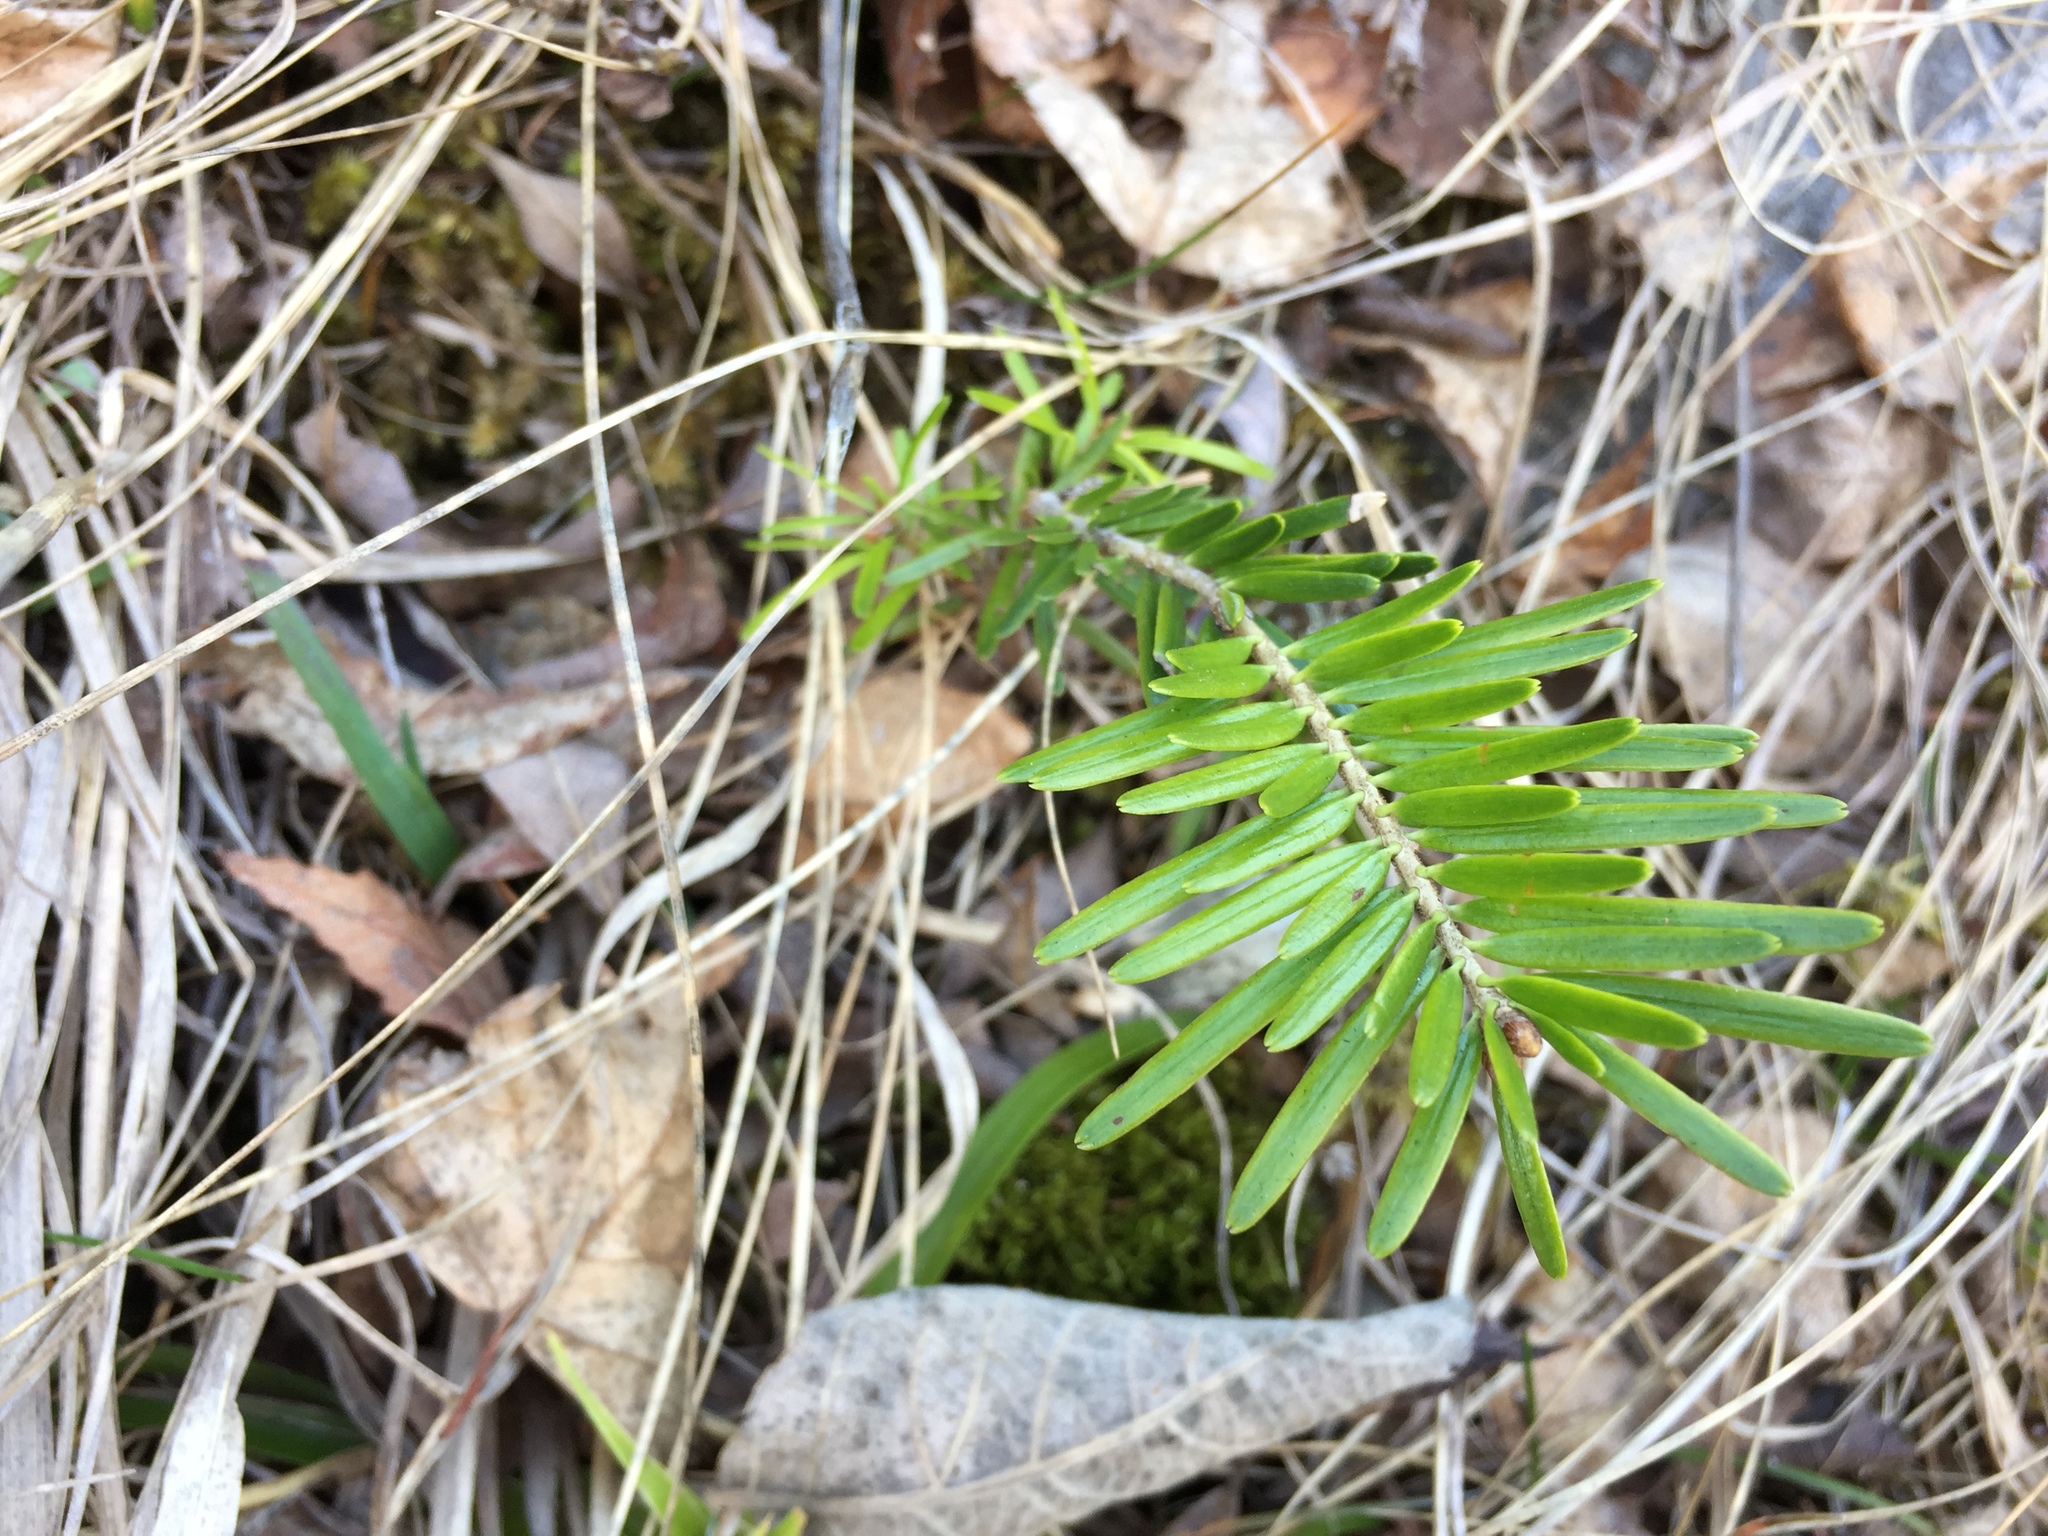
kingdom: Plantae
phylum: Tracheophyta
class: Pinopsida
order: Pinales
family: Pinaceae
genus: Abies
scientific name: Abies alba
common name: Silver fir
